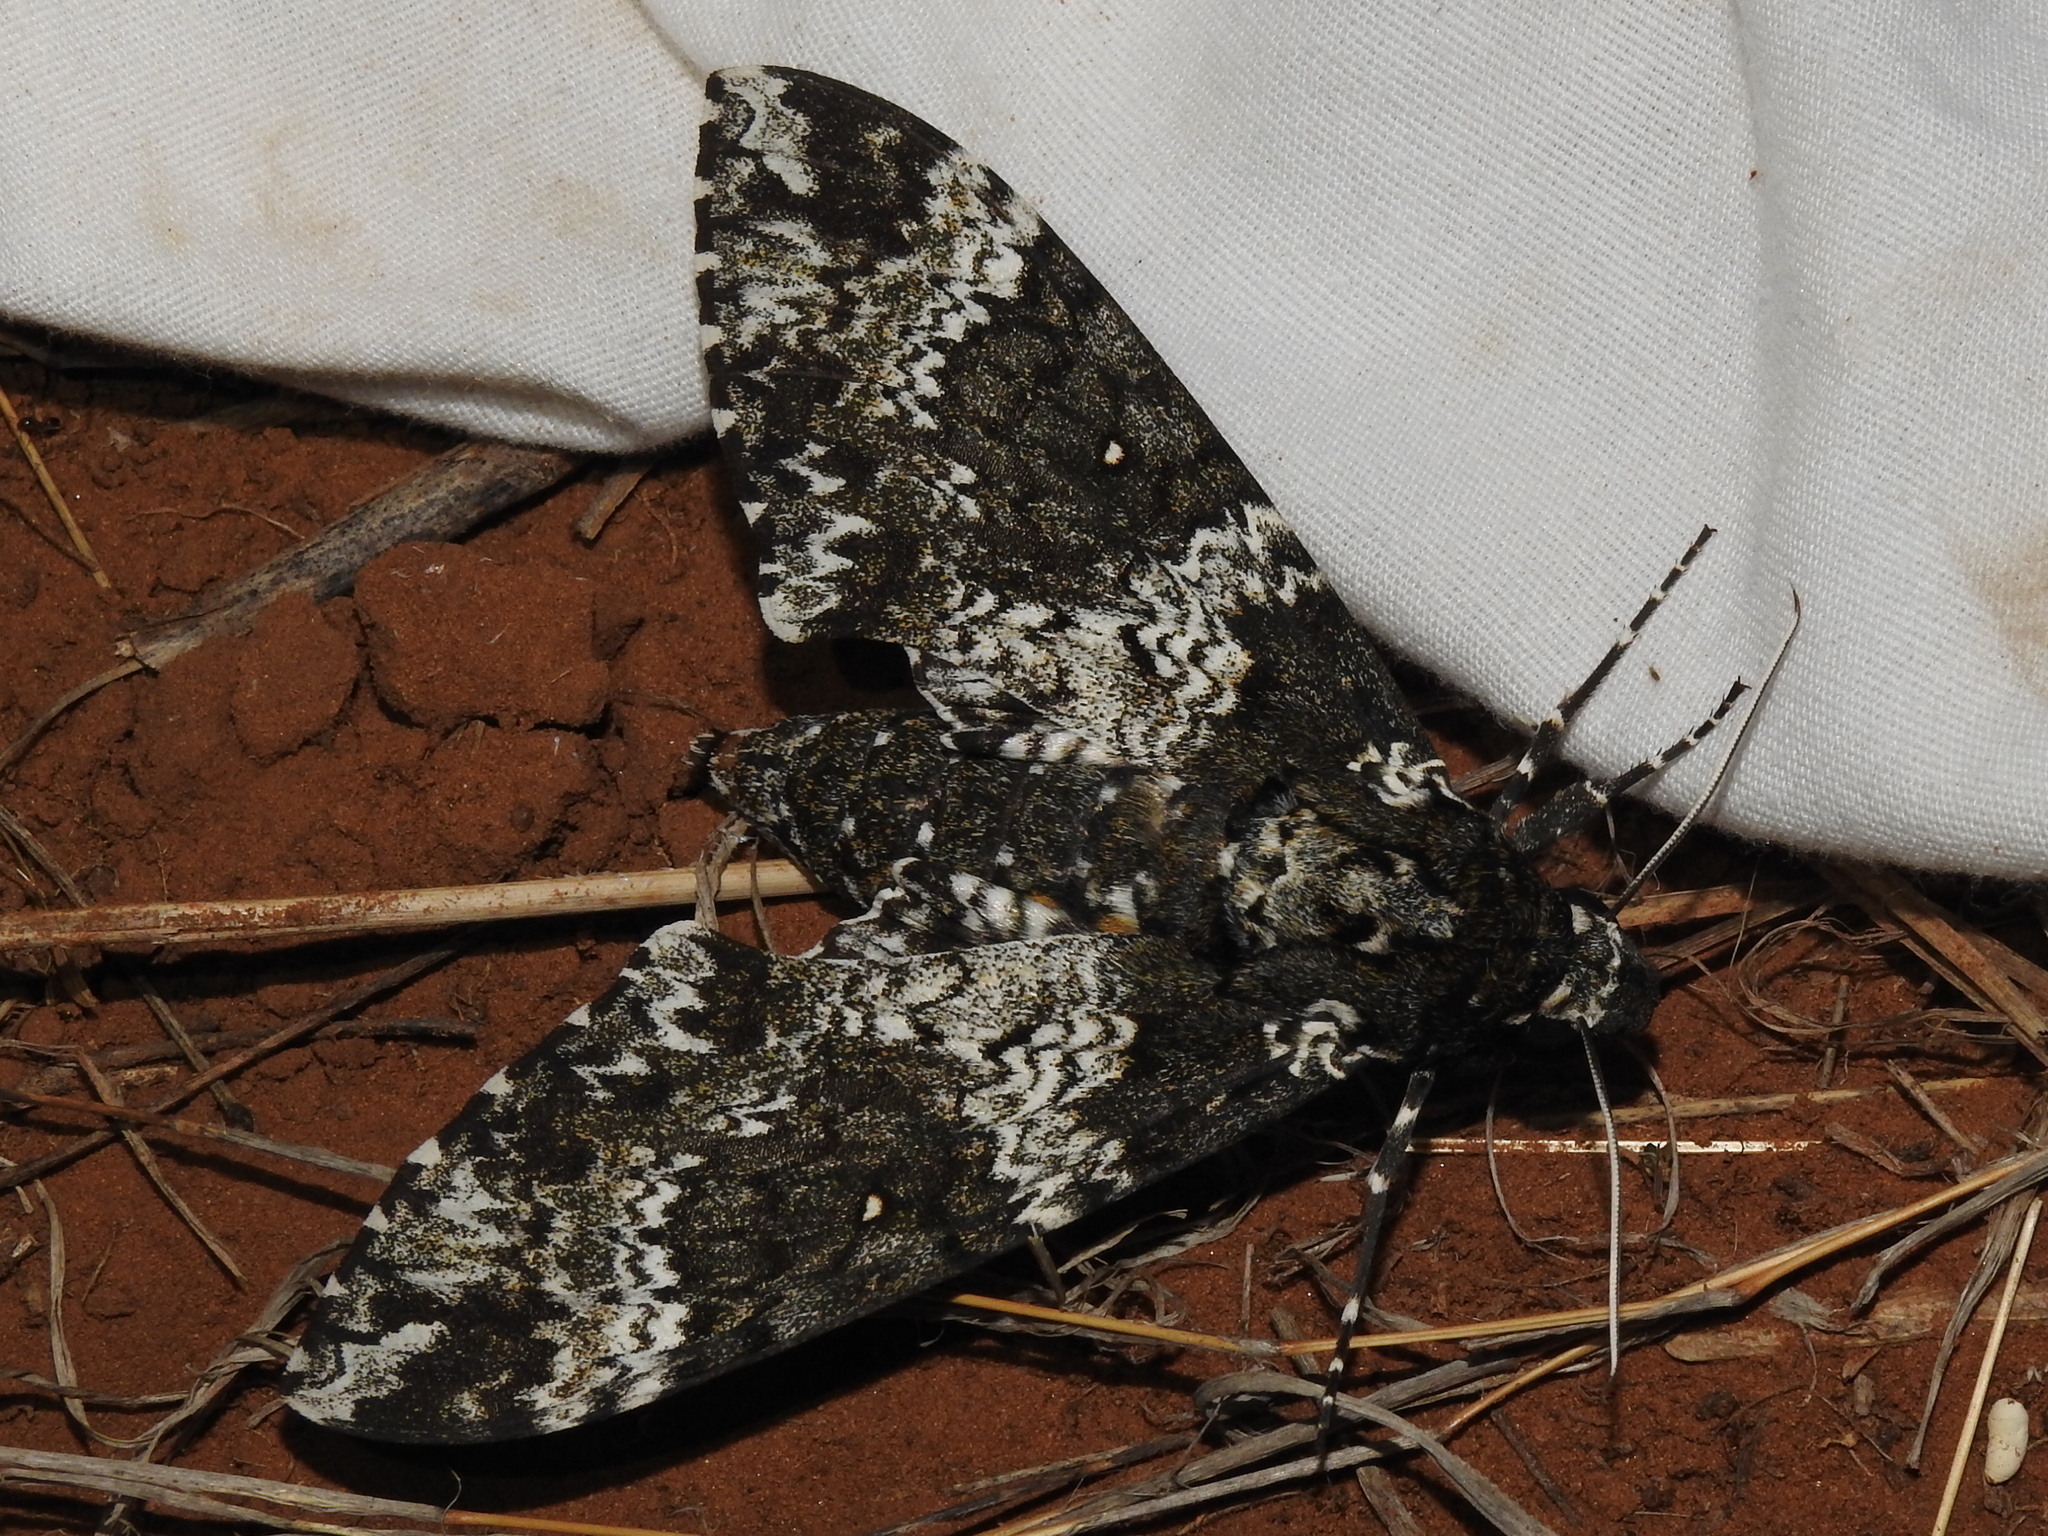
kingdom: Animalia
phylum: Arthropoda
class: Insecta
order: Lepidoptera
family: Sphingidae
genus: Manduca
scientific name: Manduca rustica
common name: Rustic sphinx
